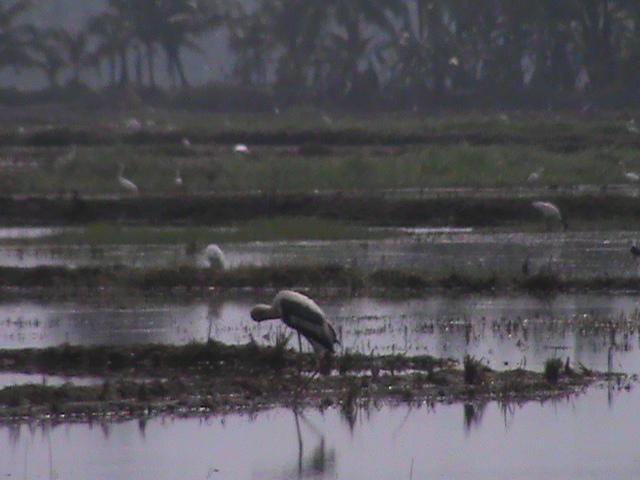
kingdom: Animalia
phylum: Chordata
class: Aves
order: Ciconiiformes
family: Ciconiidae
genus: Mycteria
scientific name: Mycteria leucocephala
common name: Painted stork
